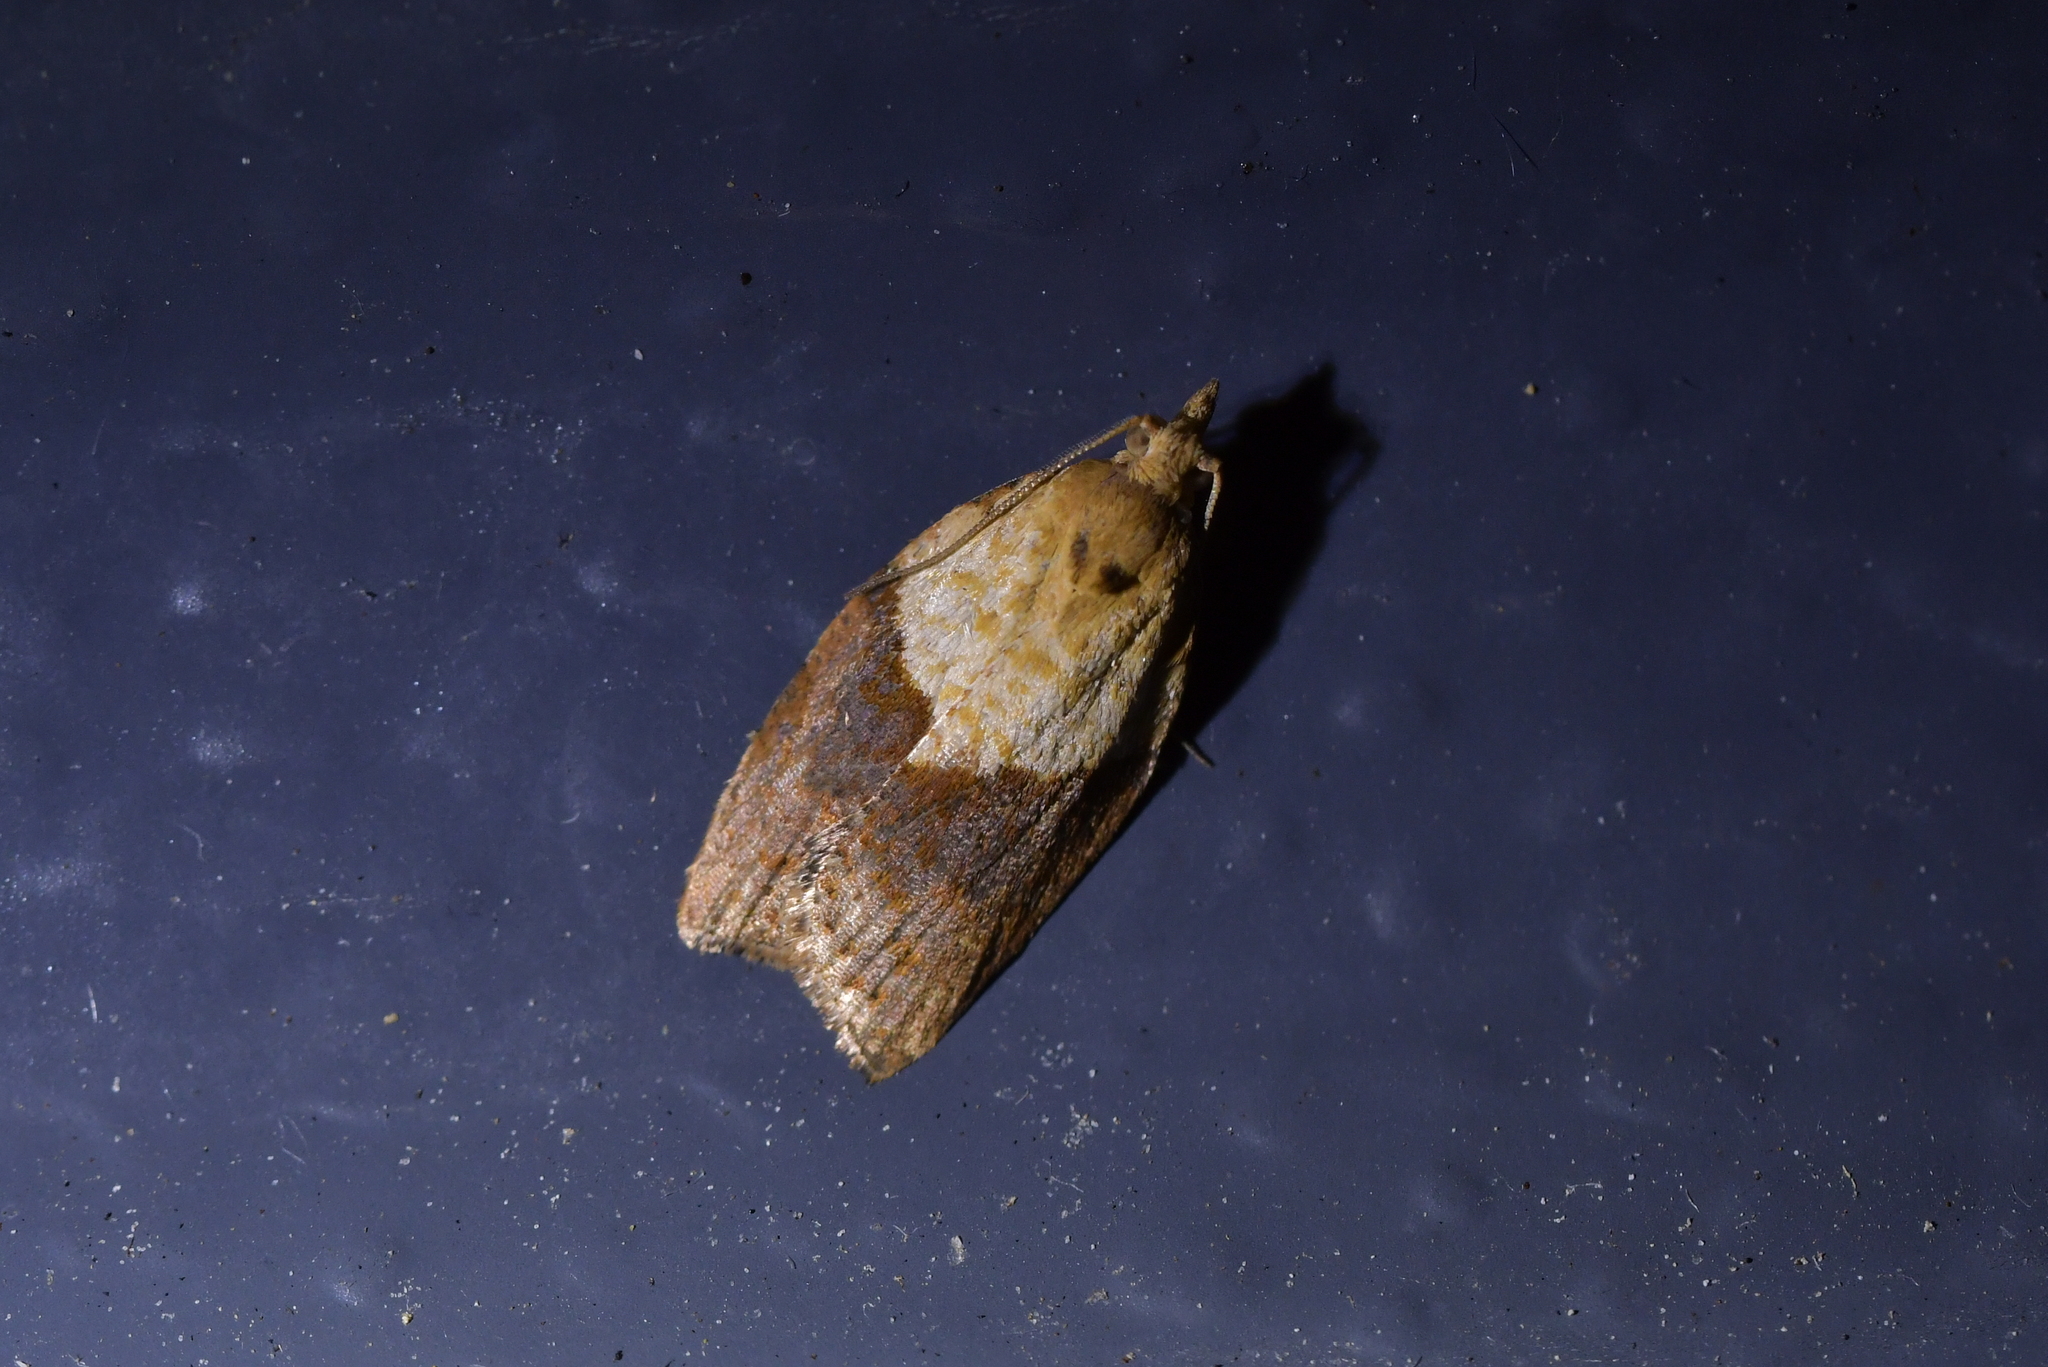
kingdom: Animalia
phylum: Arthropoda
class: Insecta
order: Lepidoptera
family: Tortricidae
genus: Epiphyas
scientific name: Epiphyas postvittana
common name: Light brown apple moth
